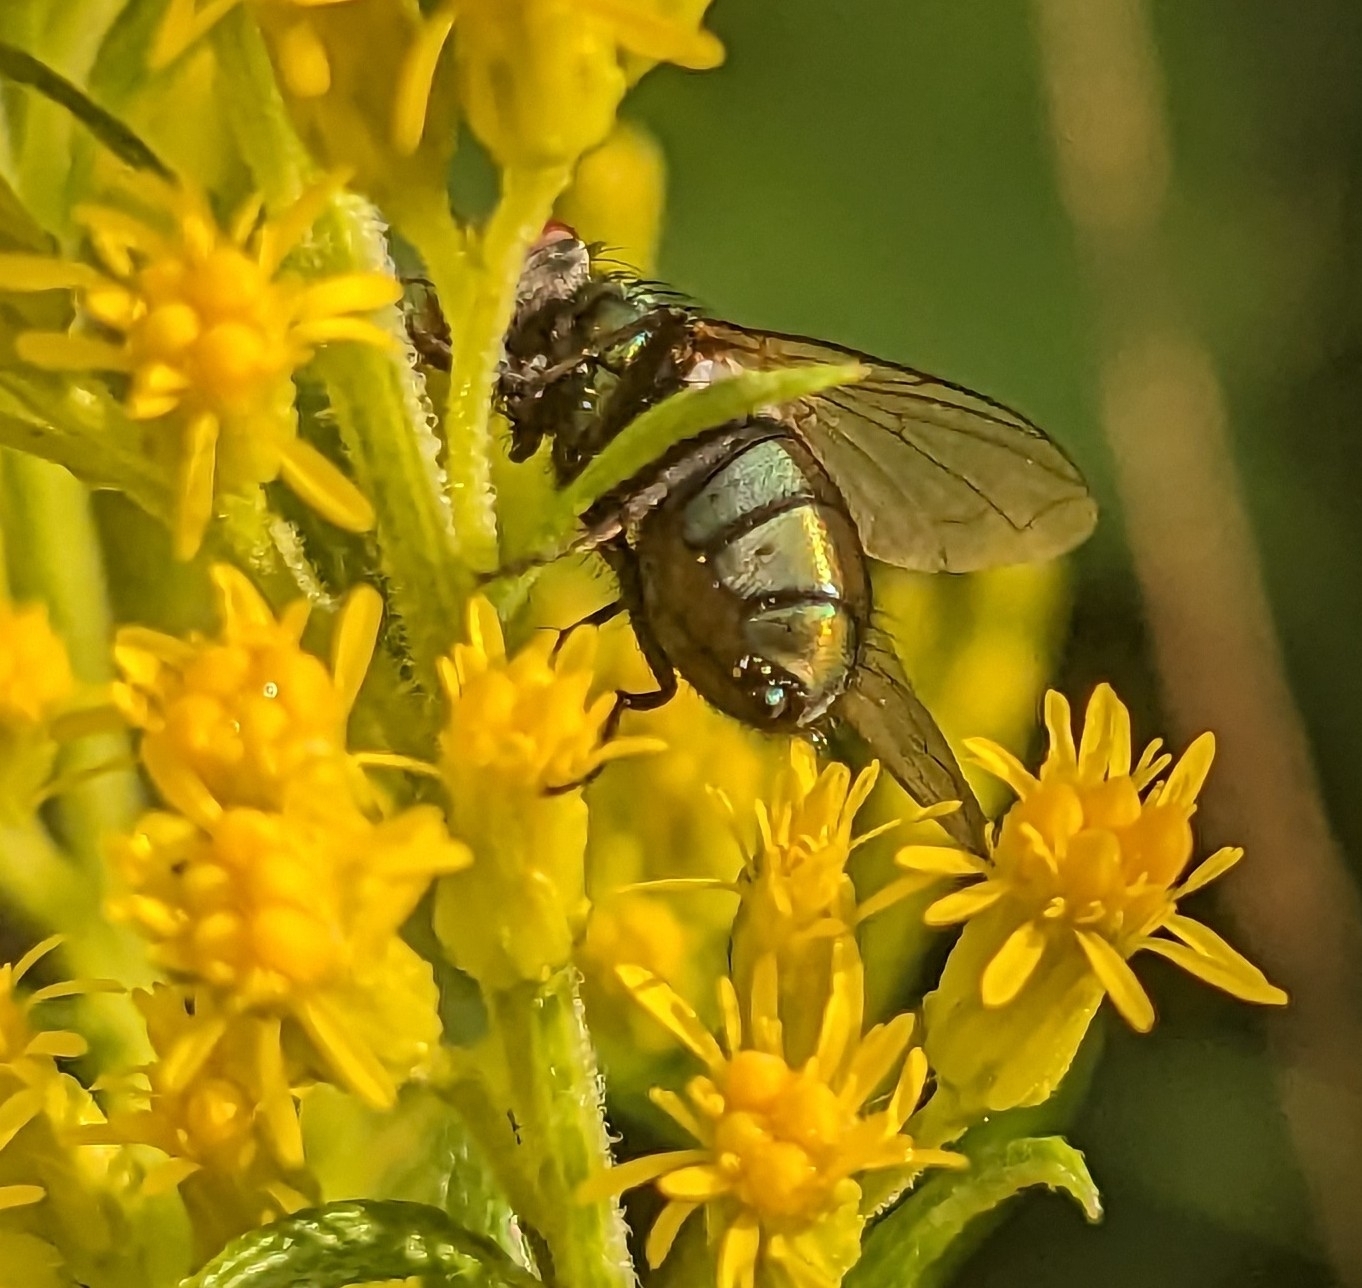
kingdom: Animalia
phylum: Arthropoda
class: Insecta
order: Diptera
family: Calliphoridae
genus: Lucilia
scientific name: Lucilia sericata
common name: Blow fly
